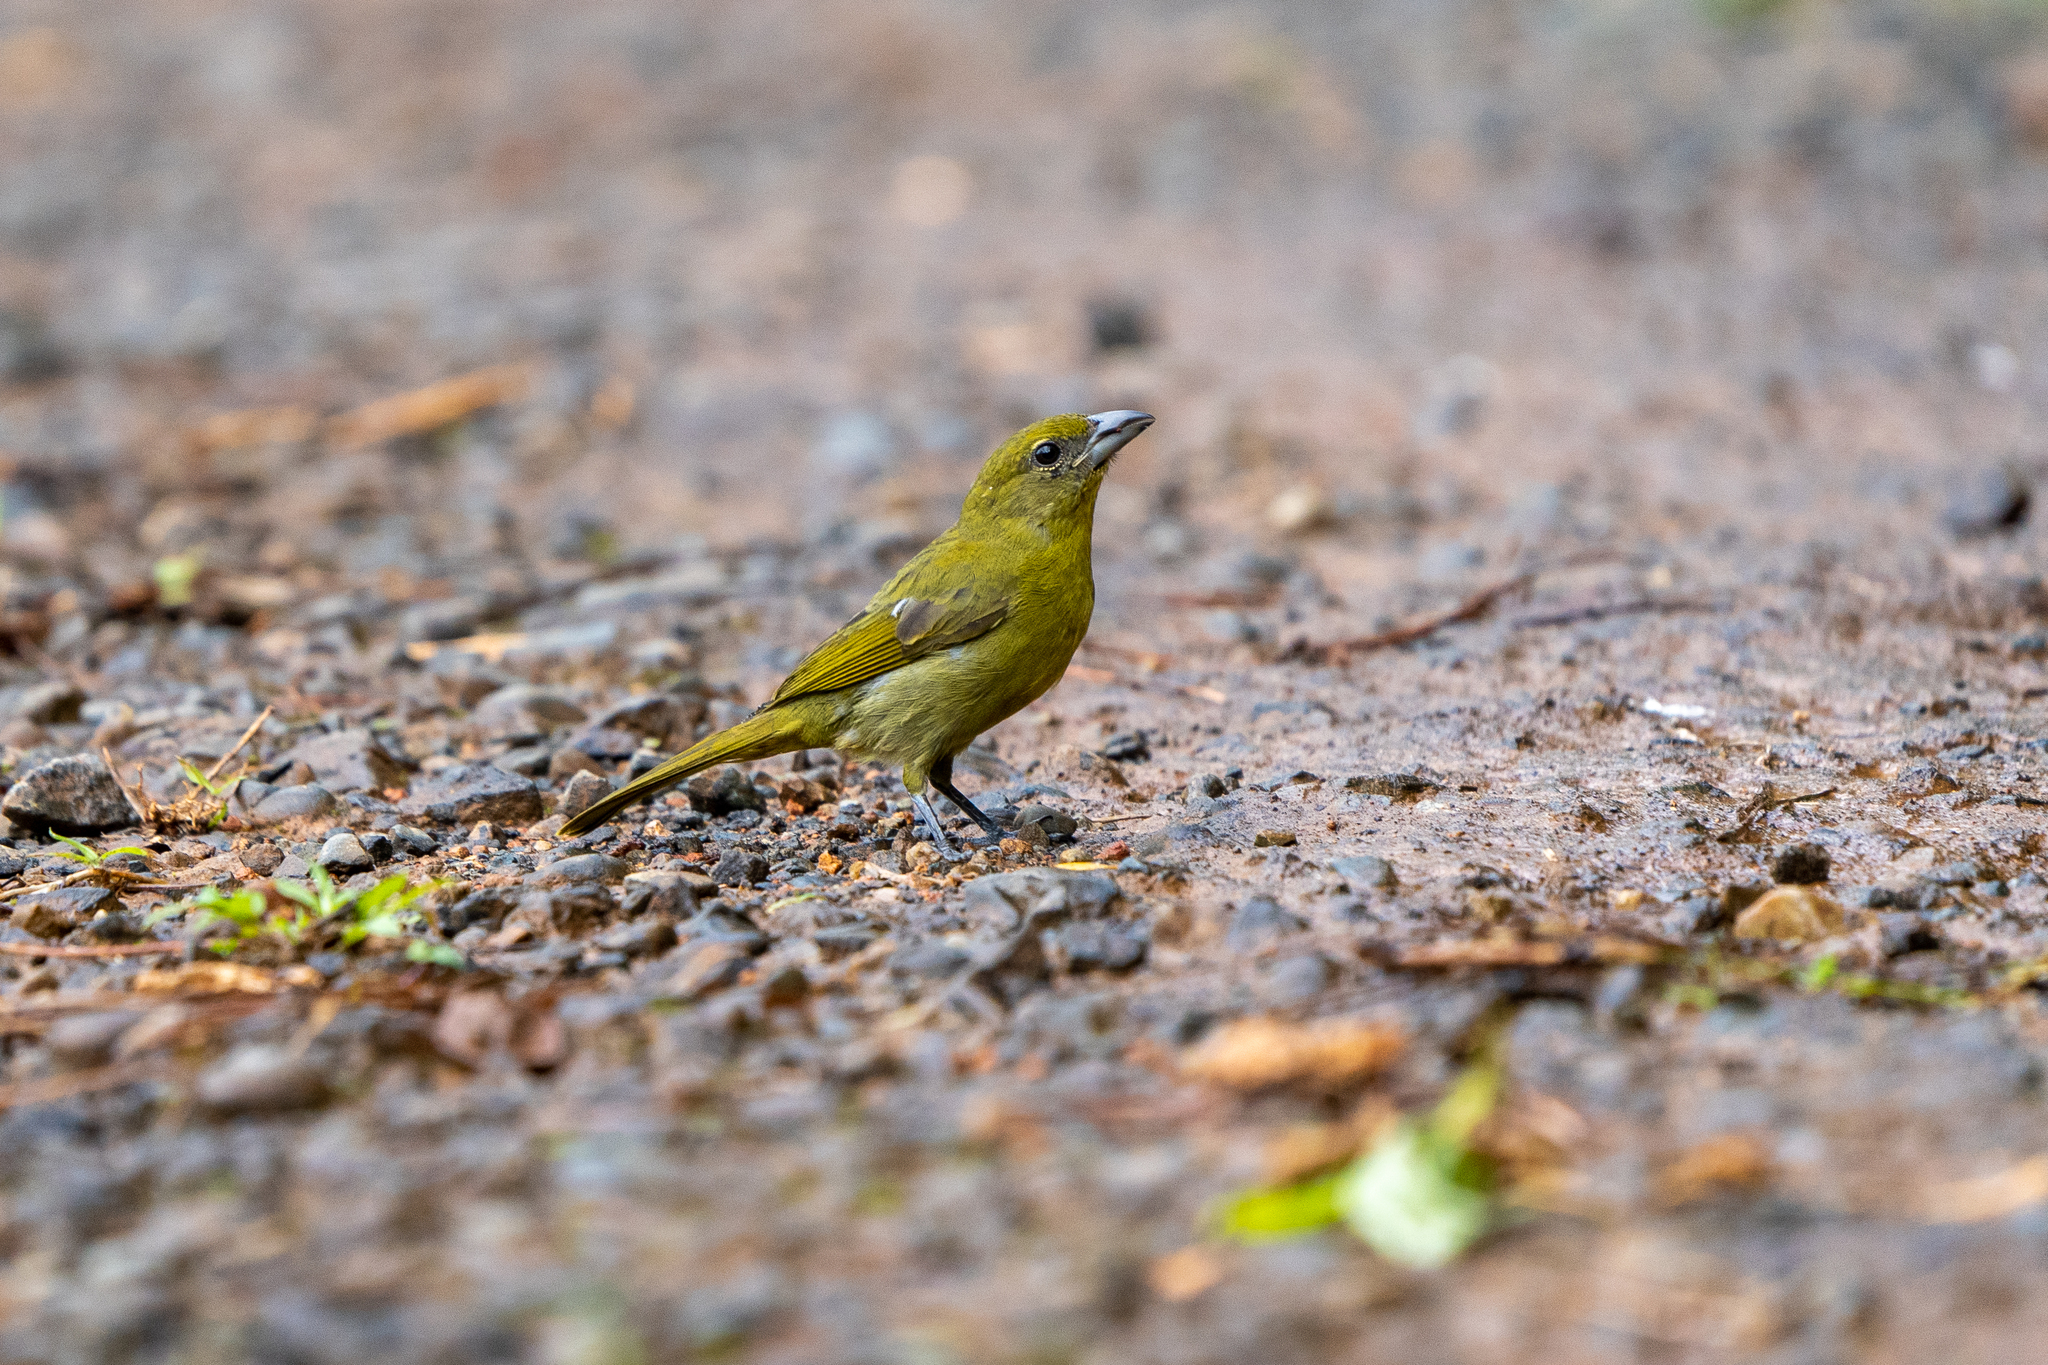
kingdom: Animalia
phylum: Chordata
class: Aves
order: Passeriformes
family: Cardinalidae
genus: Piranga
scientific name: Piranga flava
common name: Red tanager
